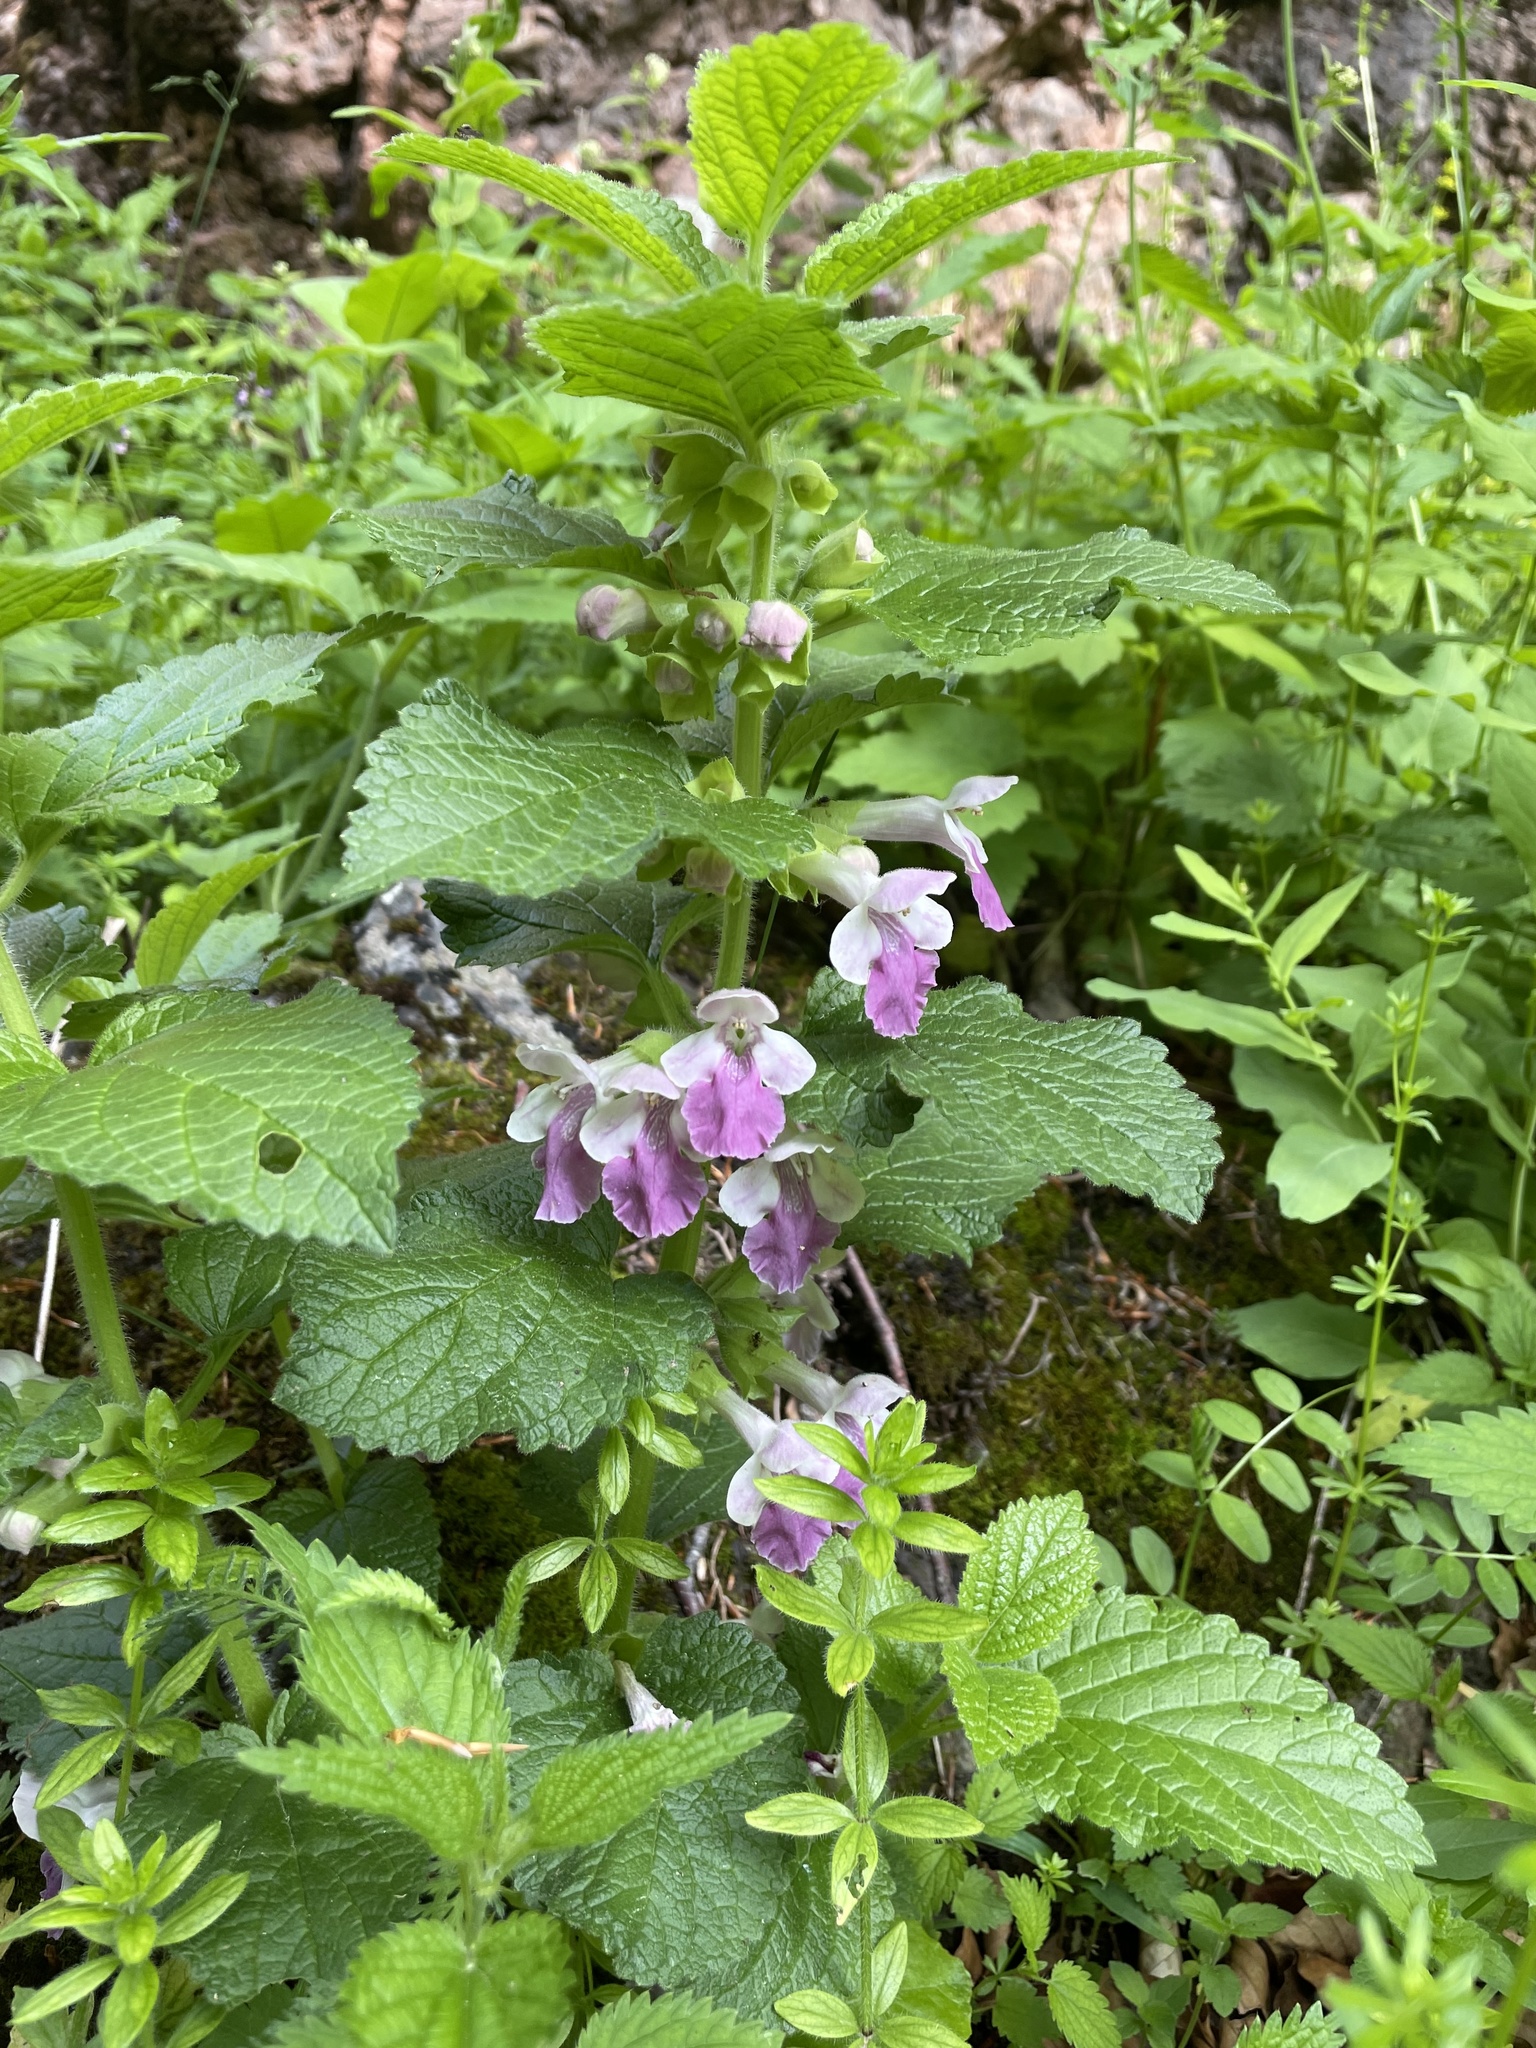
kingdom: Plantae
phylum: Tracheophyta
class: Magnoliopsida
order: Lamiales
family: Lamiaceae
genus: Melittis
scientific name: Melittis melissophyllum
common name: Bastard balm
